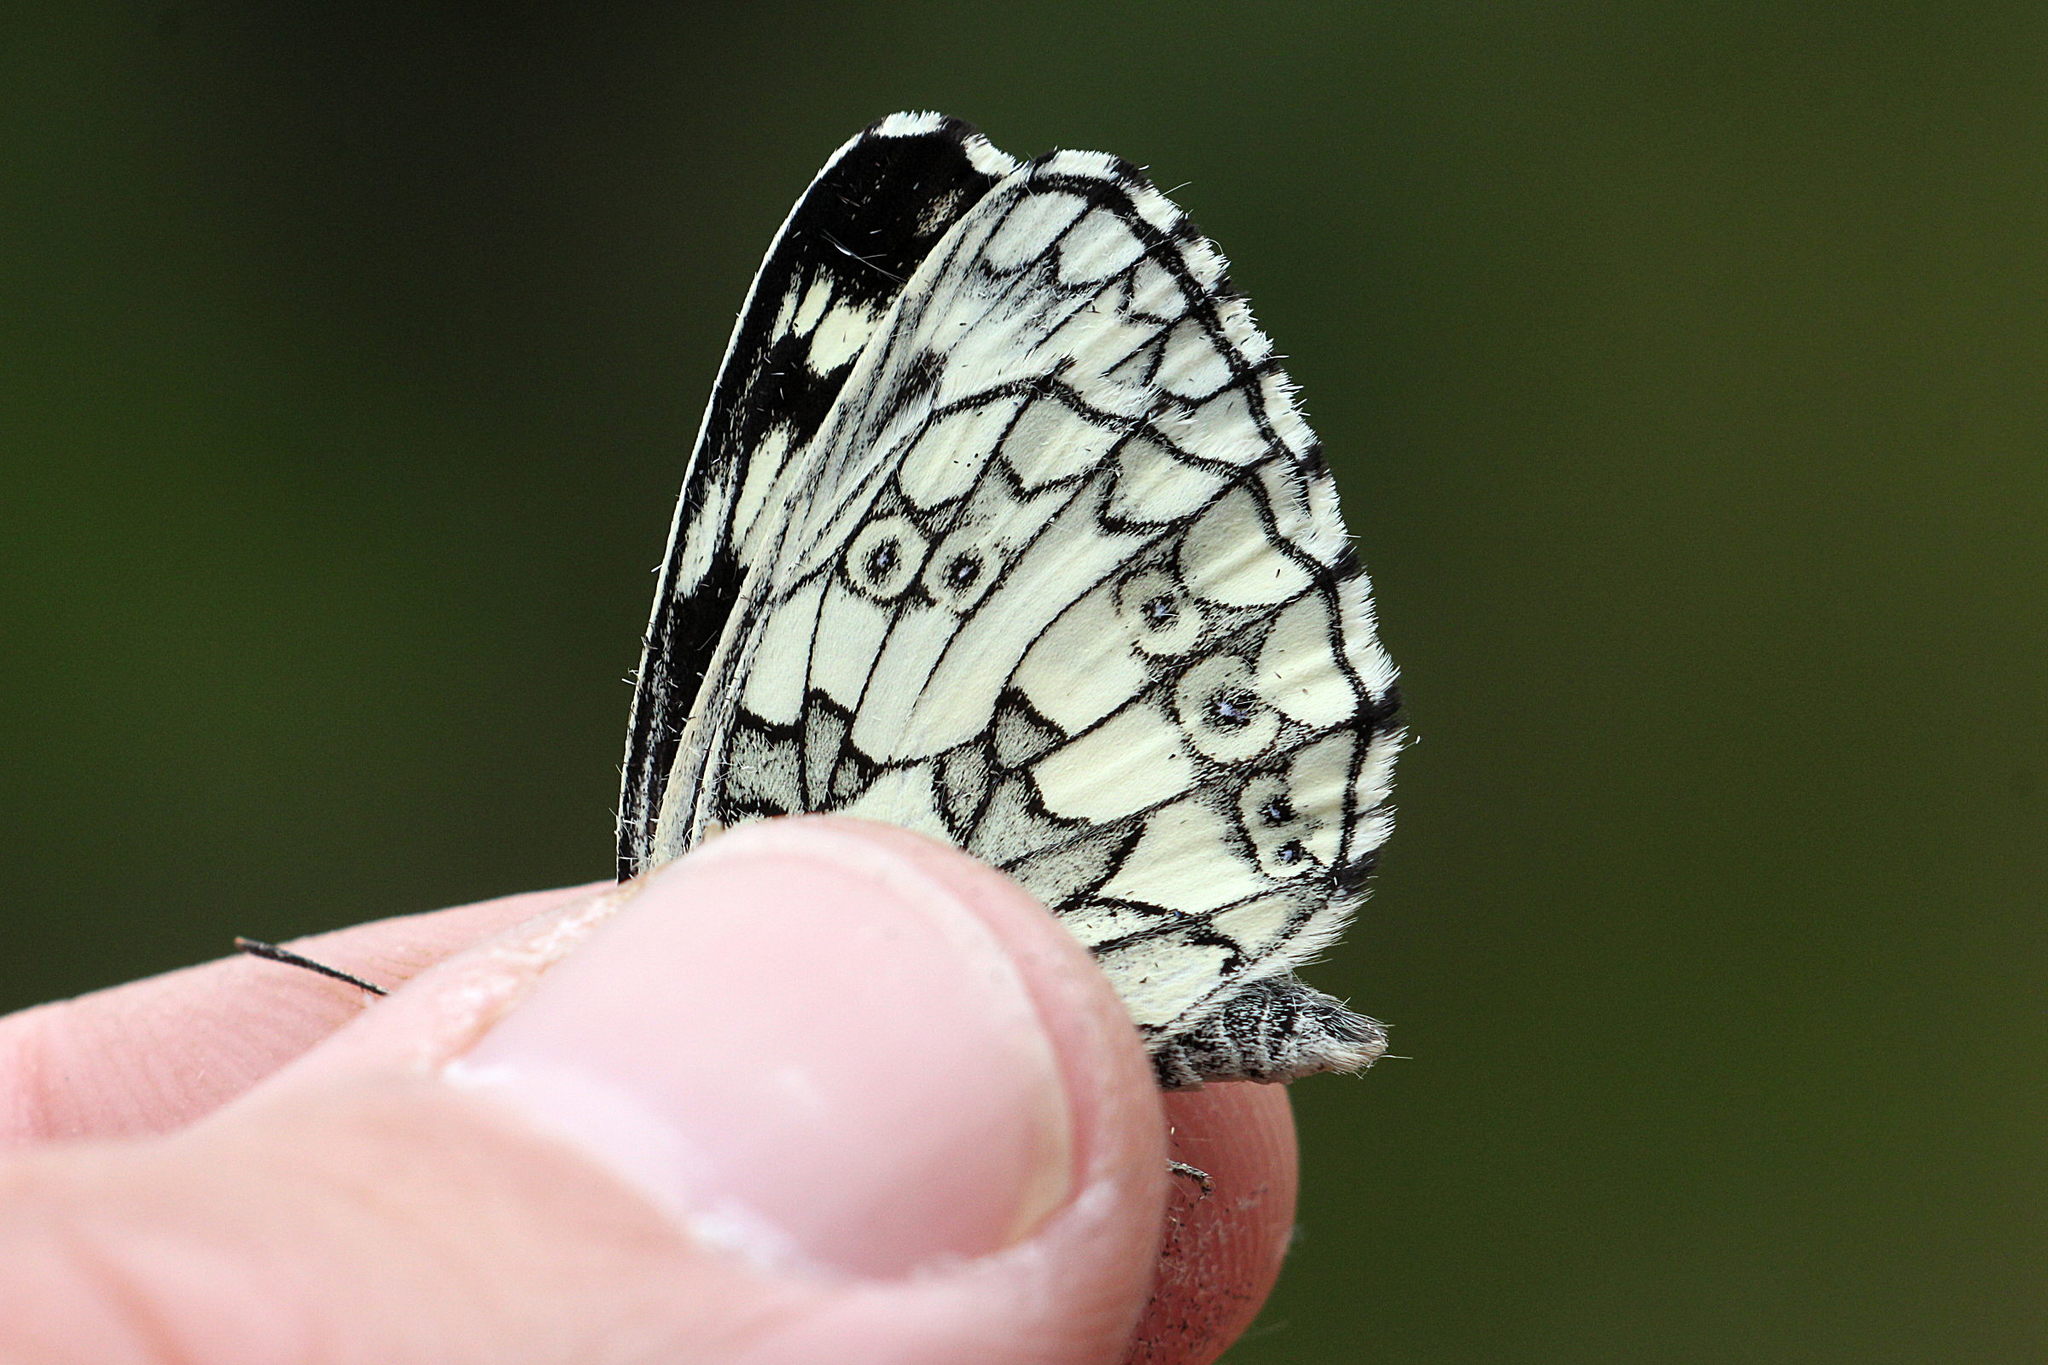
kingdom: Animalia
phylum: Arthropoda
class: Insecta
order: Lepidoptera
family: Nymphalidae
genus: Melanargia
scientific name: Melanargia galathea
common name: Marbled white
